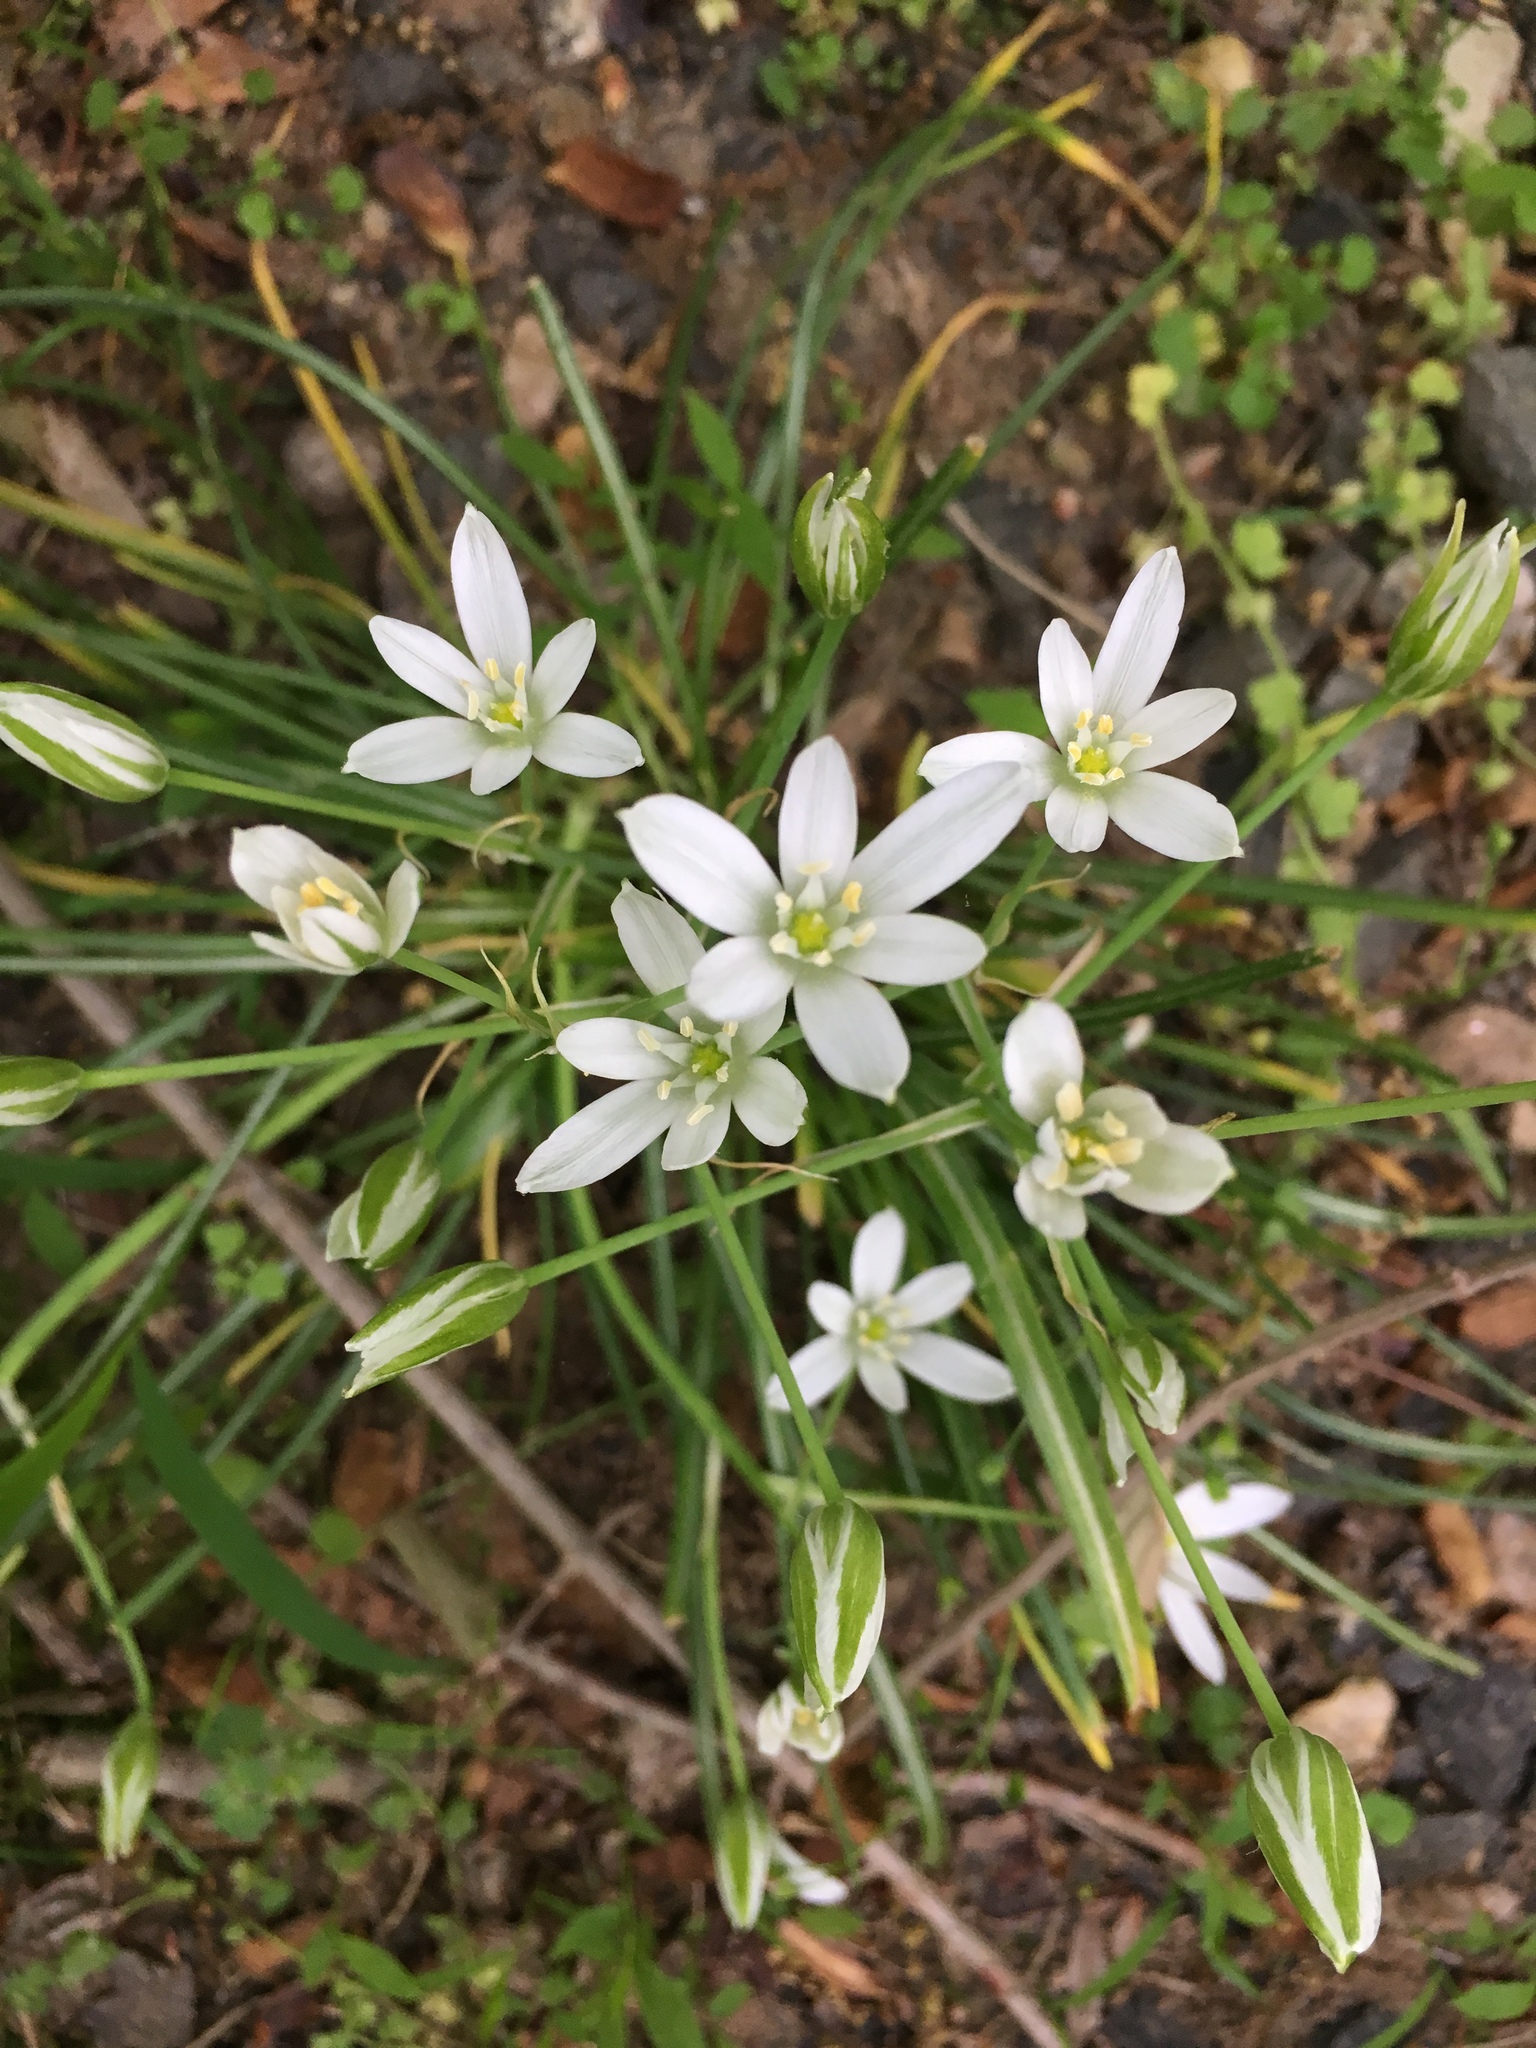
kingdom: Plantae
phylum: Tracheophyta
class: Liliopsida
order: Asparagales
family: Asparagaceae
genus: Ornithogalum
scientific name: Ornithogalum umbellatum
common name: Garden star-of-bethlehem
